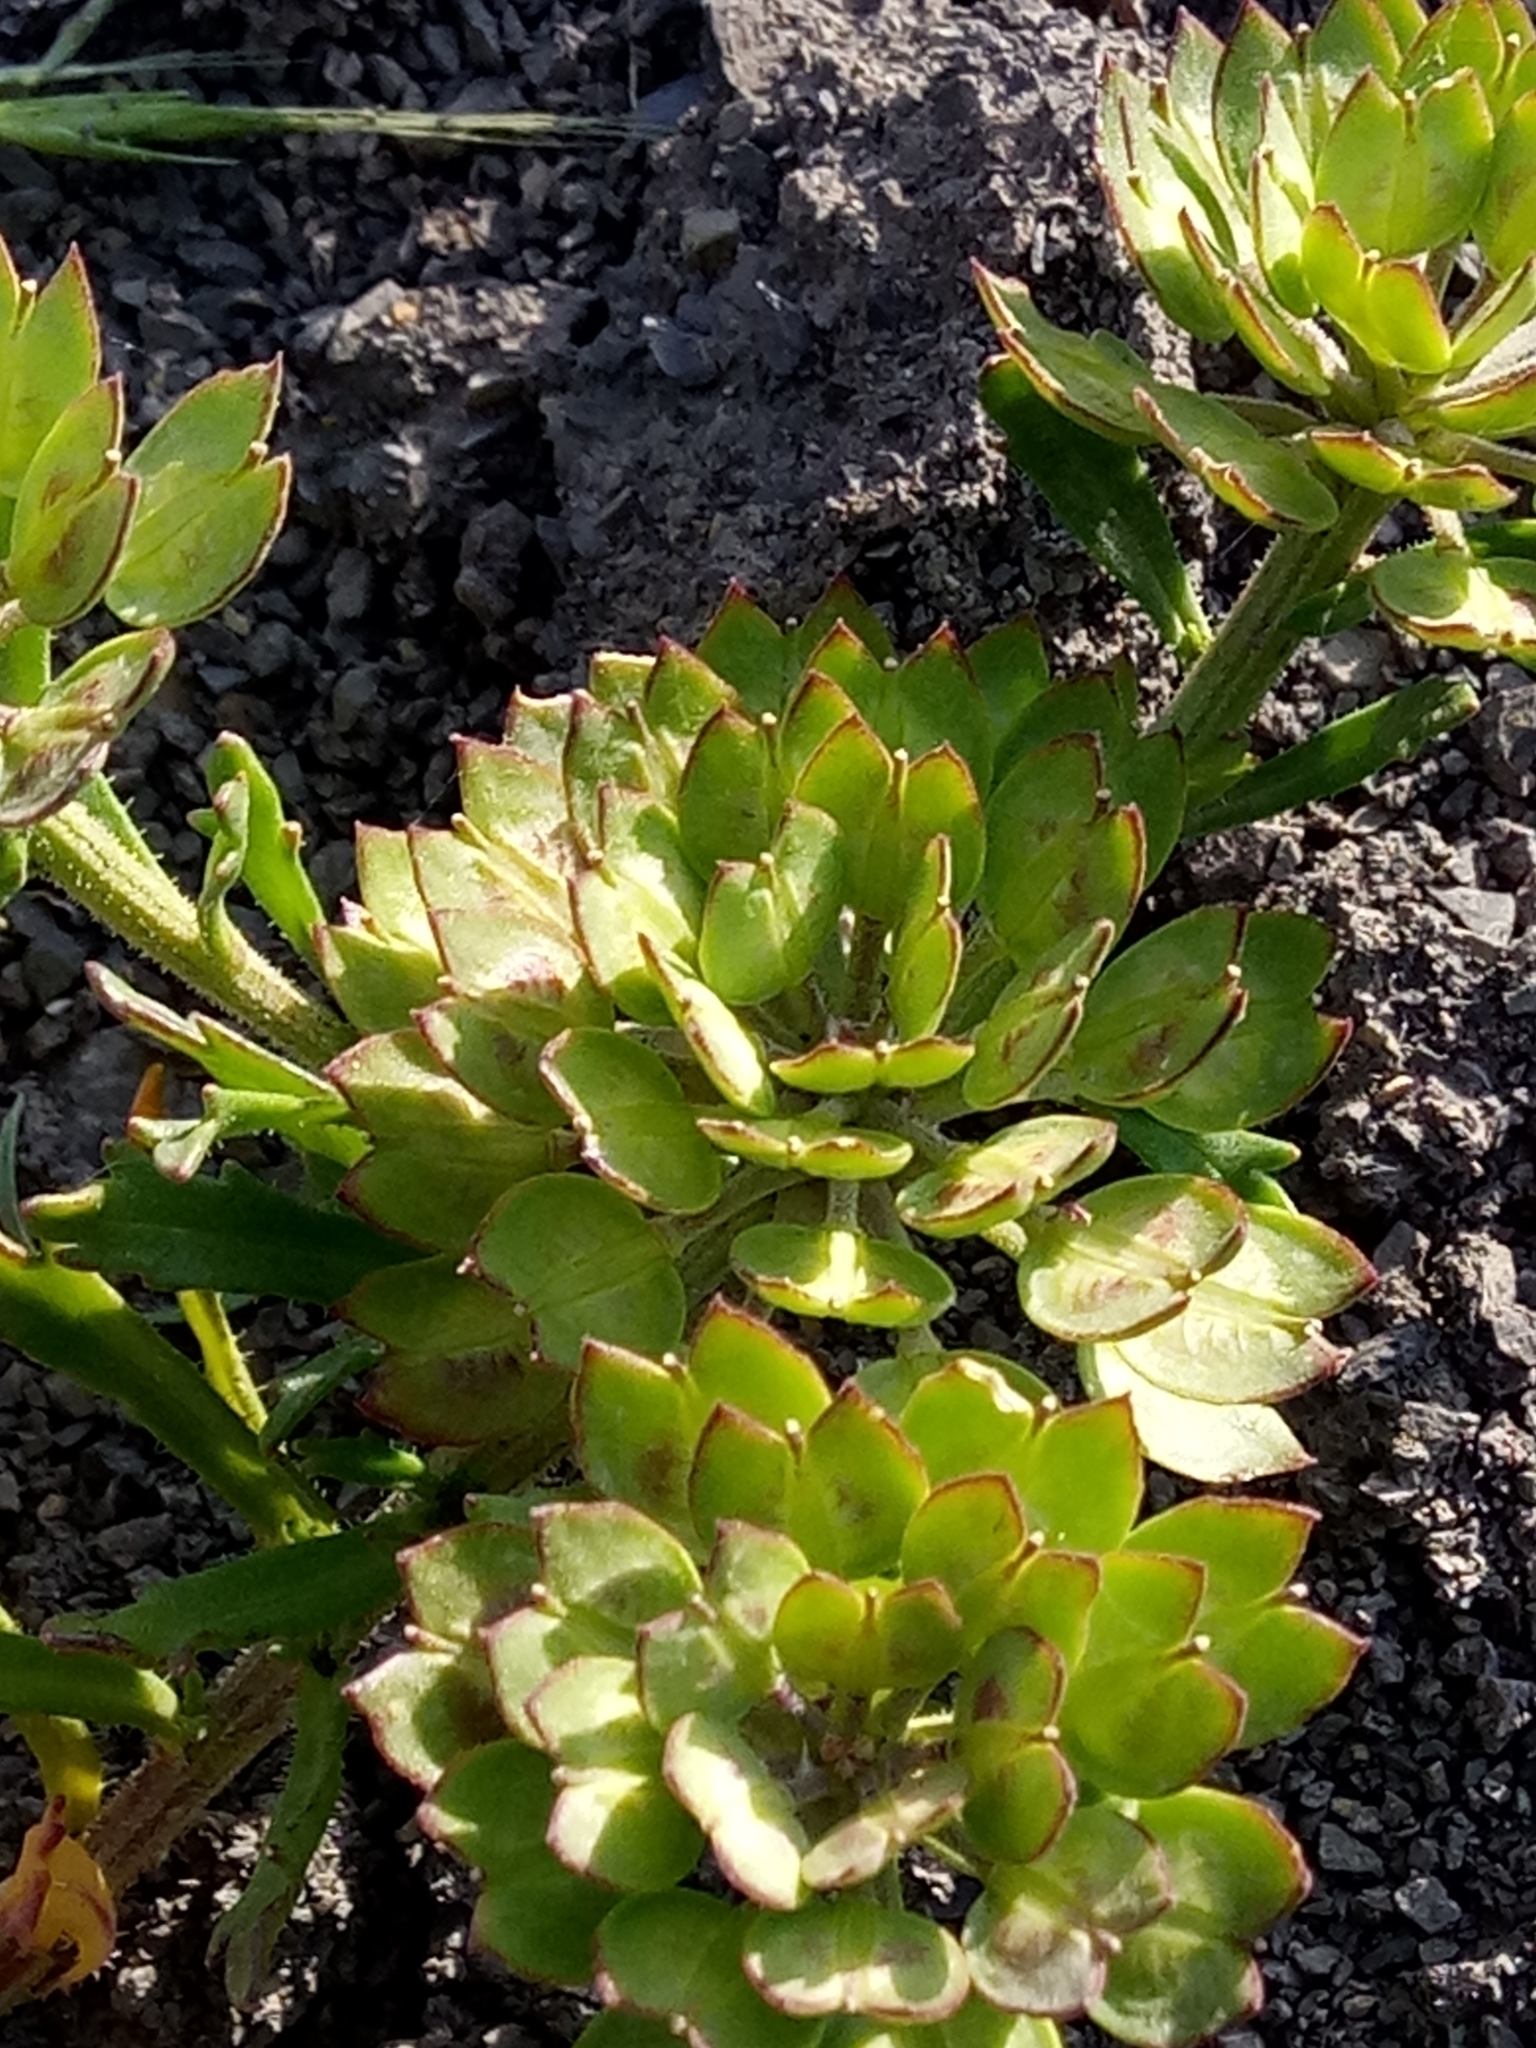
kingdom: Plantae
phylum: Tracheophyta
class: Magnoliopsida
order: Brassicales
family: Brassicaceae
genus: Iberis
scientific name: Iberis odorata
